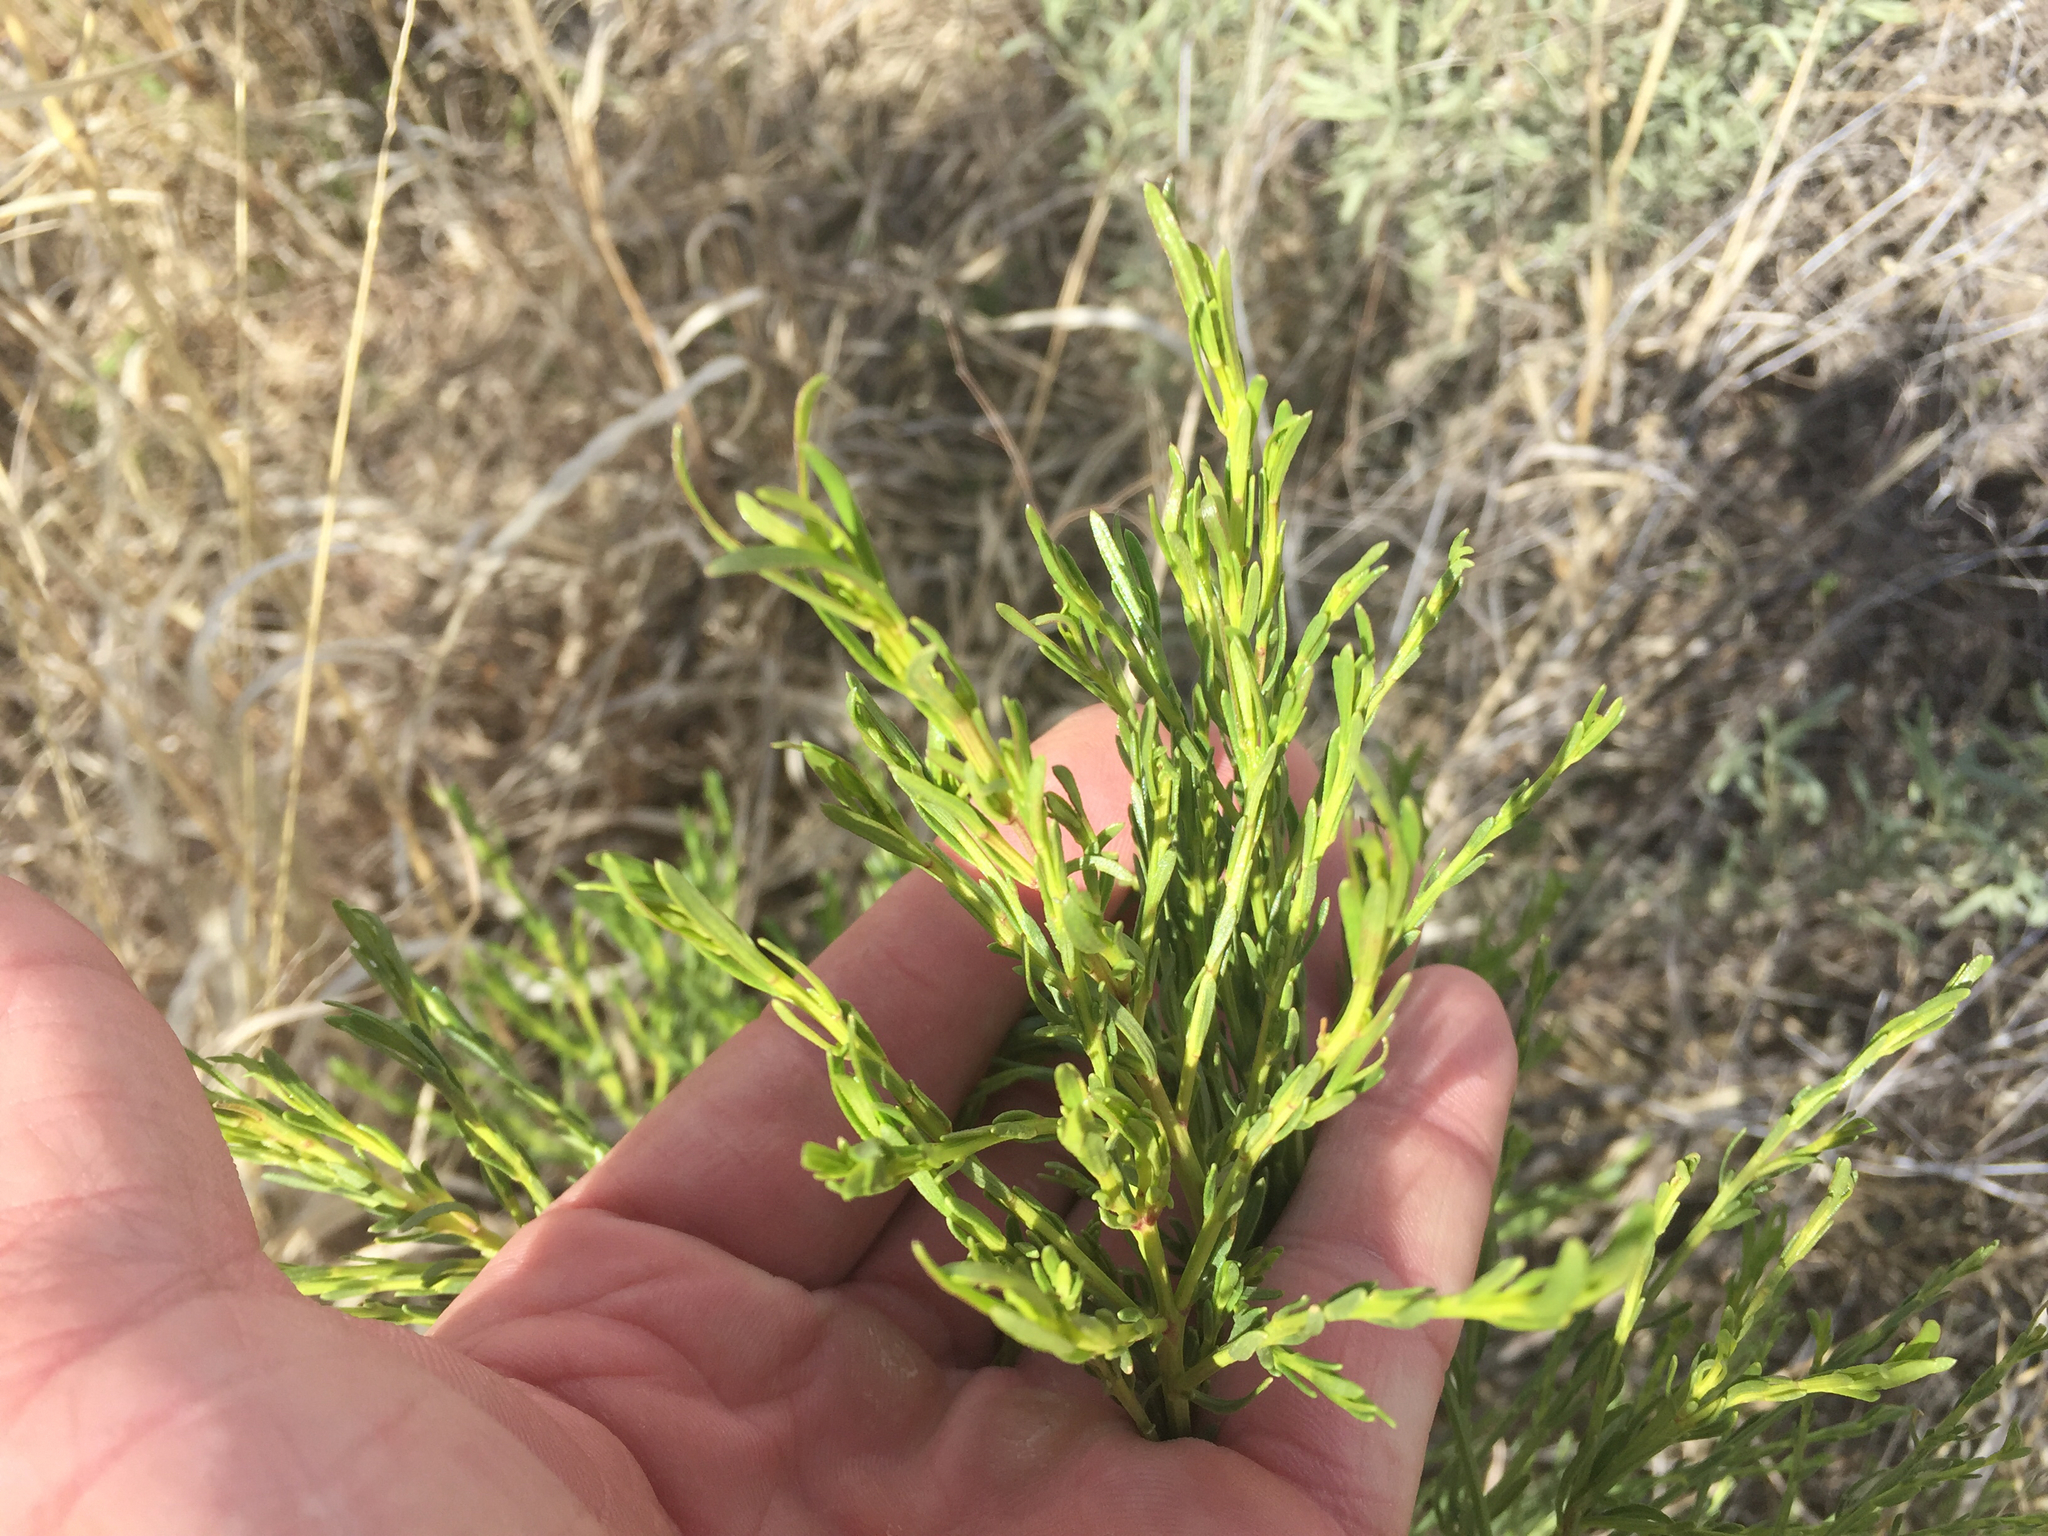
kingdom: Plantae
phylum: Tracheophyta
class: Magnoliopsida
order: Asterales
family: Asteraceae
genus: Baccharis
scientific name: Baccharis sarothroides
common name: Desert-broom
